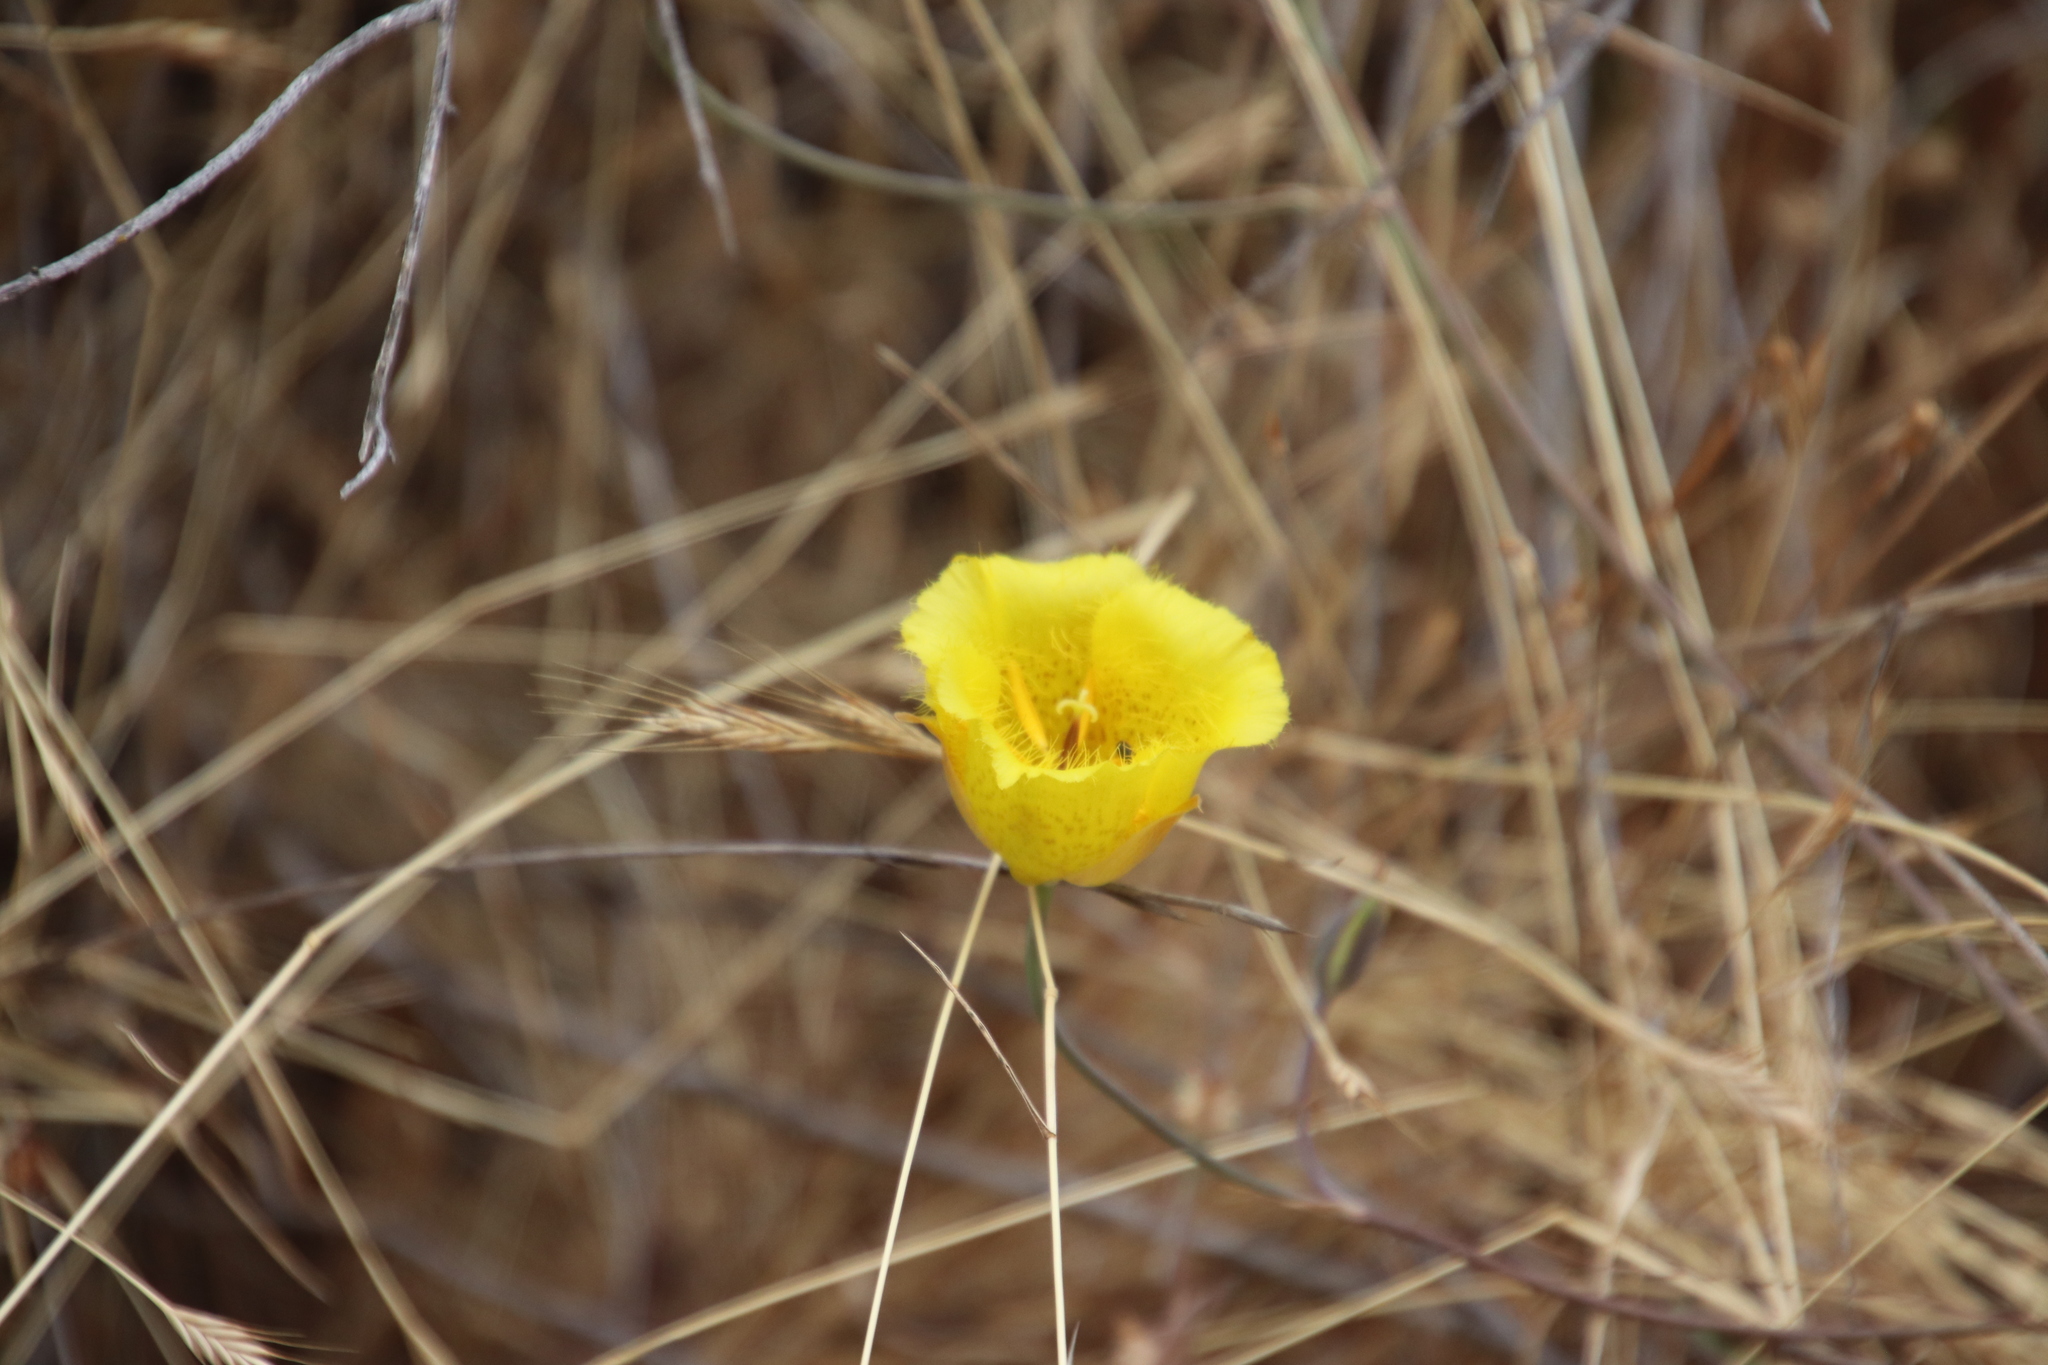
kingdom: Plantae
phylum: Tracheophyta
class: Liliopsida
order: Liliales
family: Liliaceae
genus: Calochortus
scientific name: Calochortus weedii
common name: Weed's mariposa-lily
